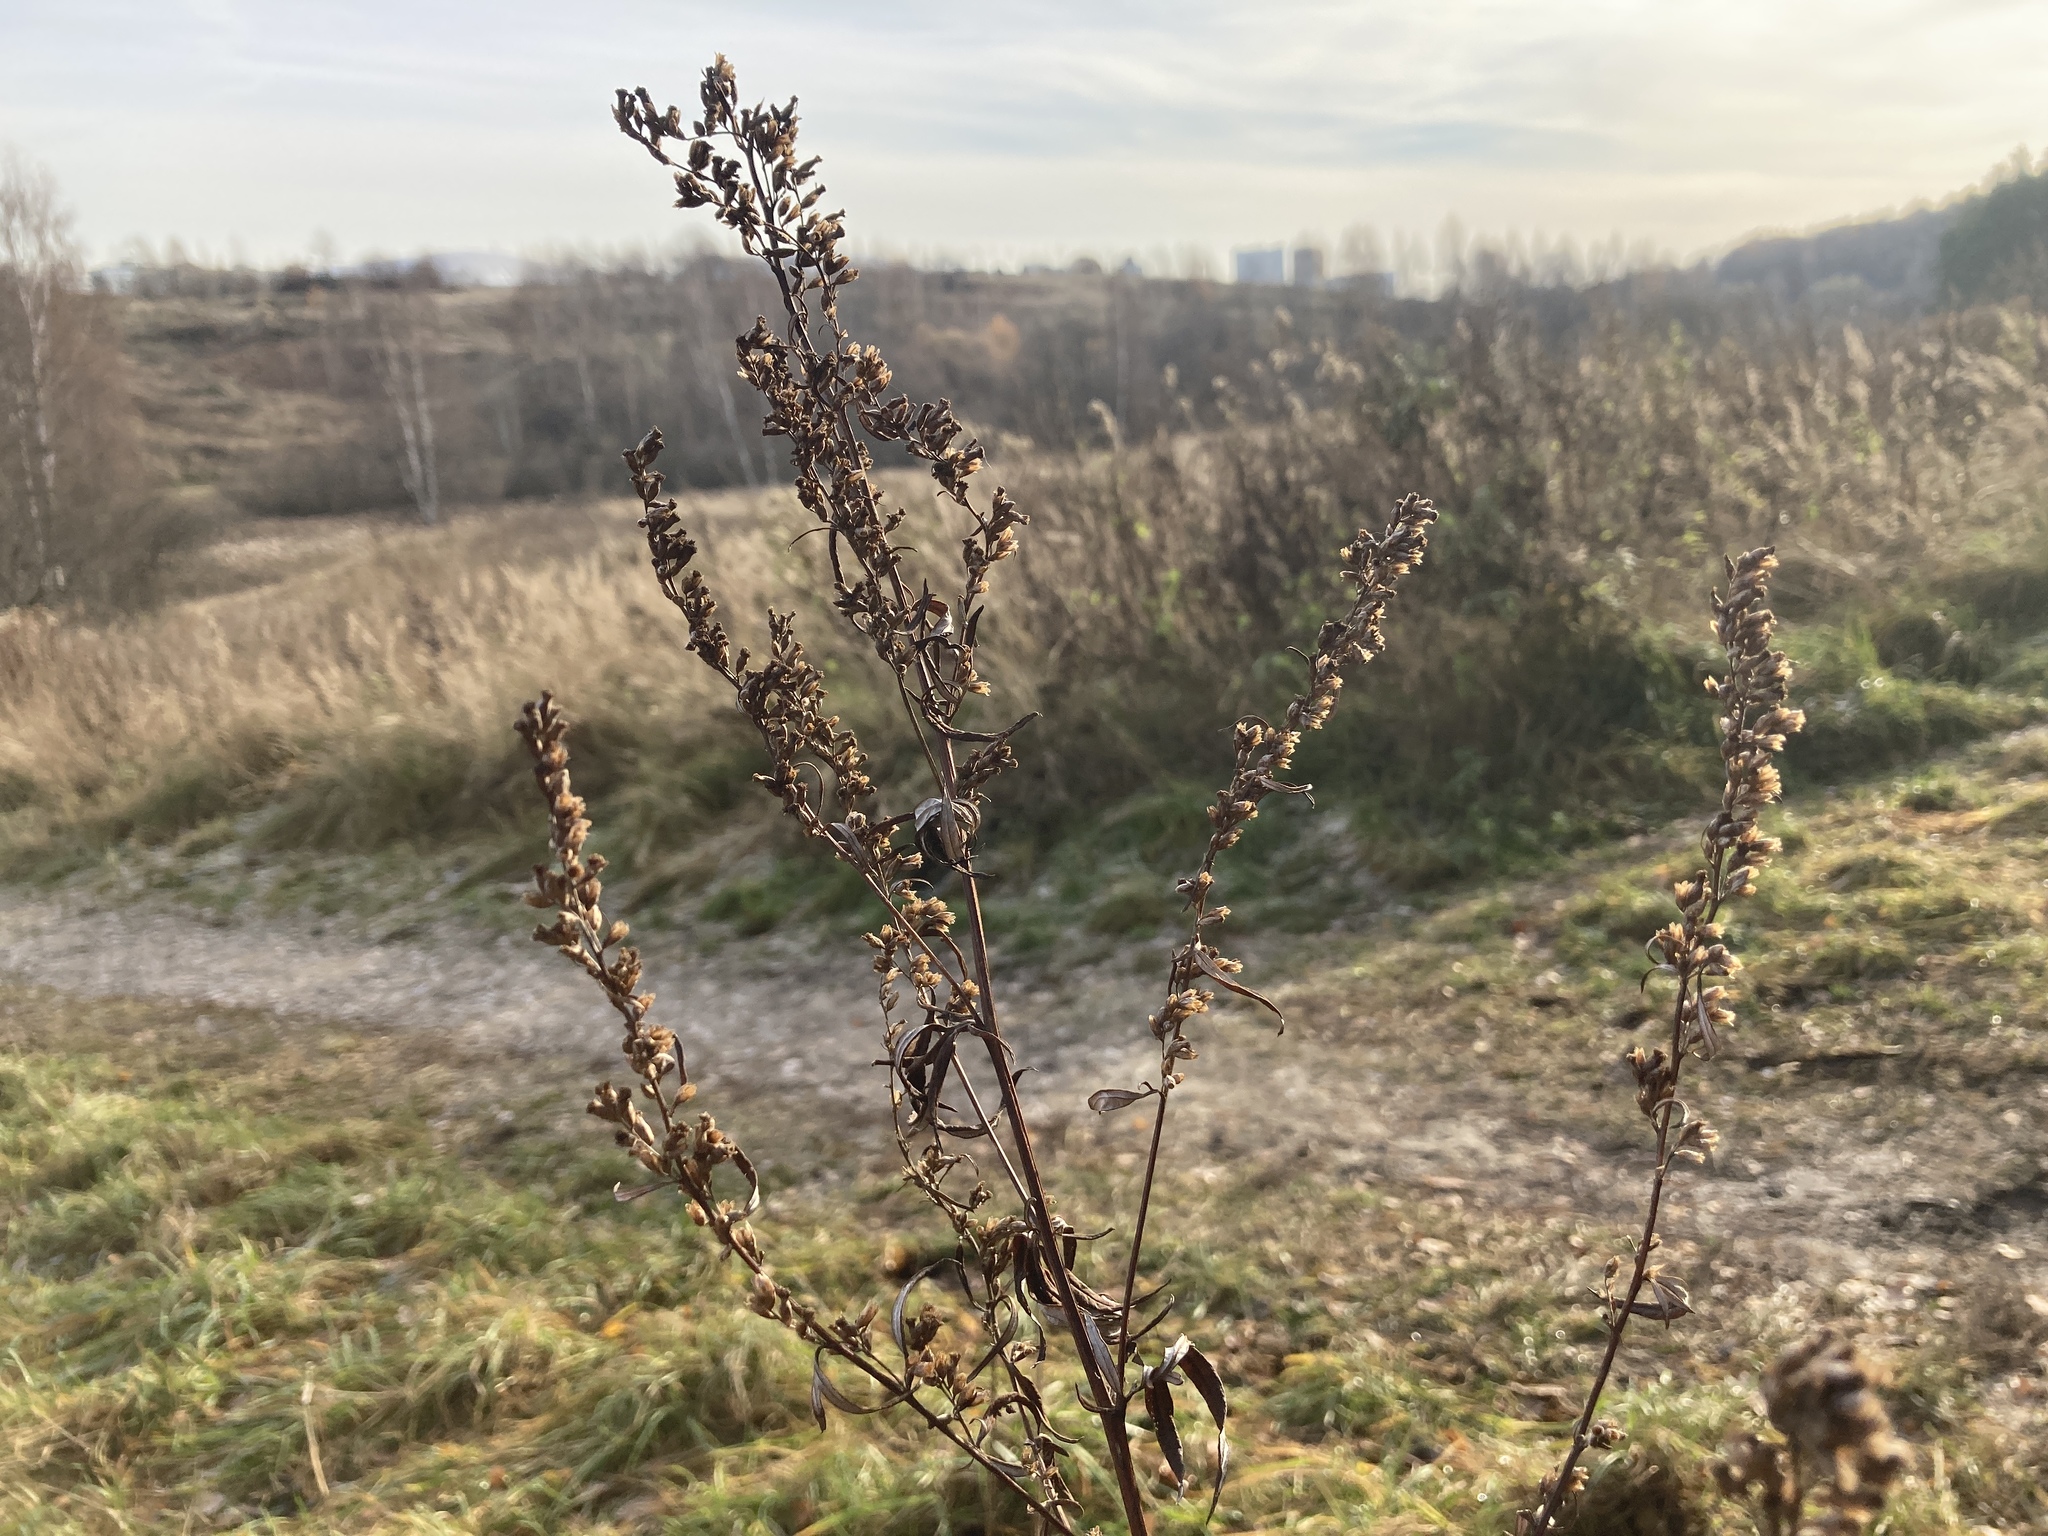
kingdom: Plantae
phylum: Tracheophyta
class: Magnoliopsida
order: Asterales
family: Asteraceae
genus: Artemisia
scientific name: Artemisia vulgaris
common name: Mugwort
